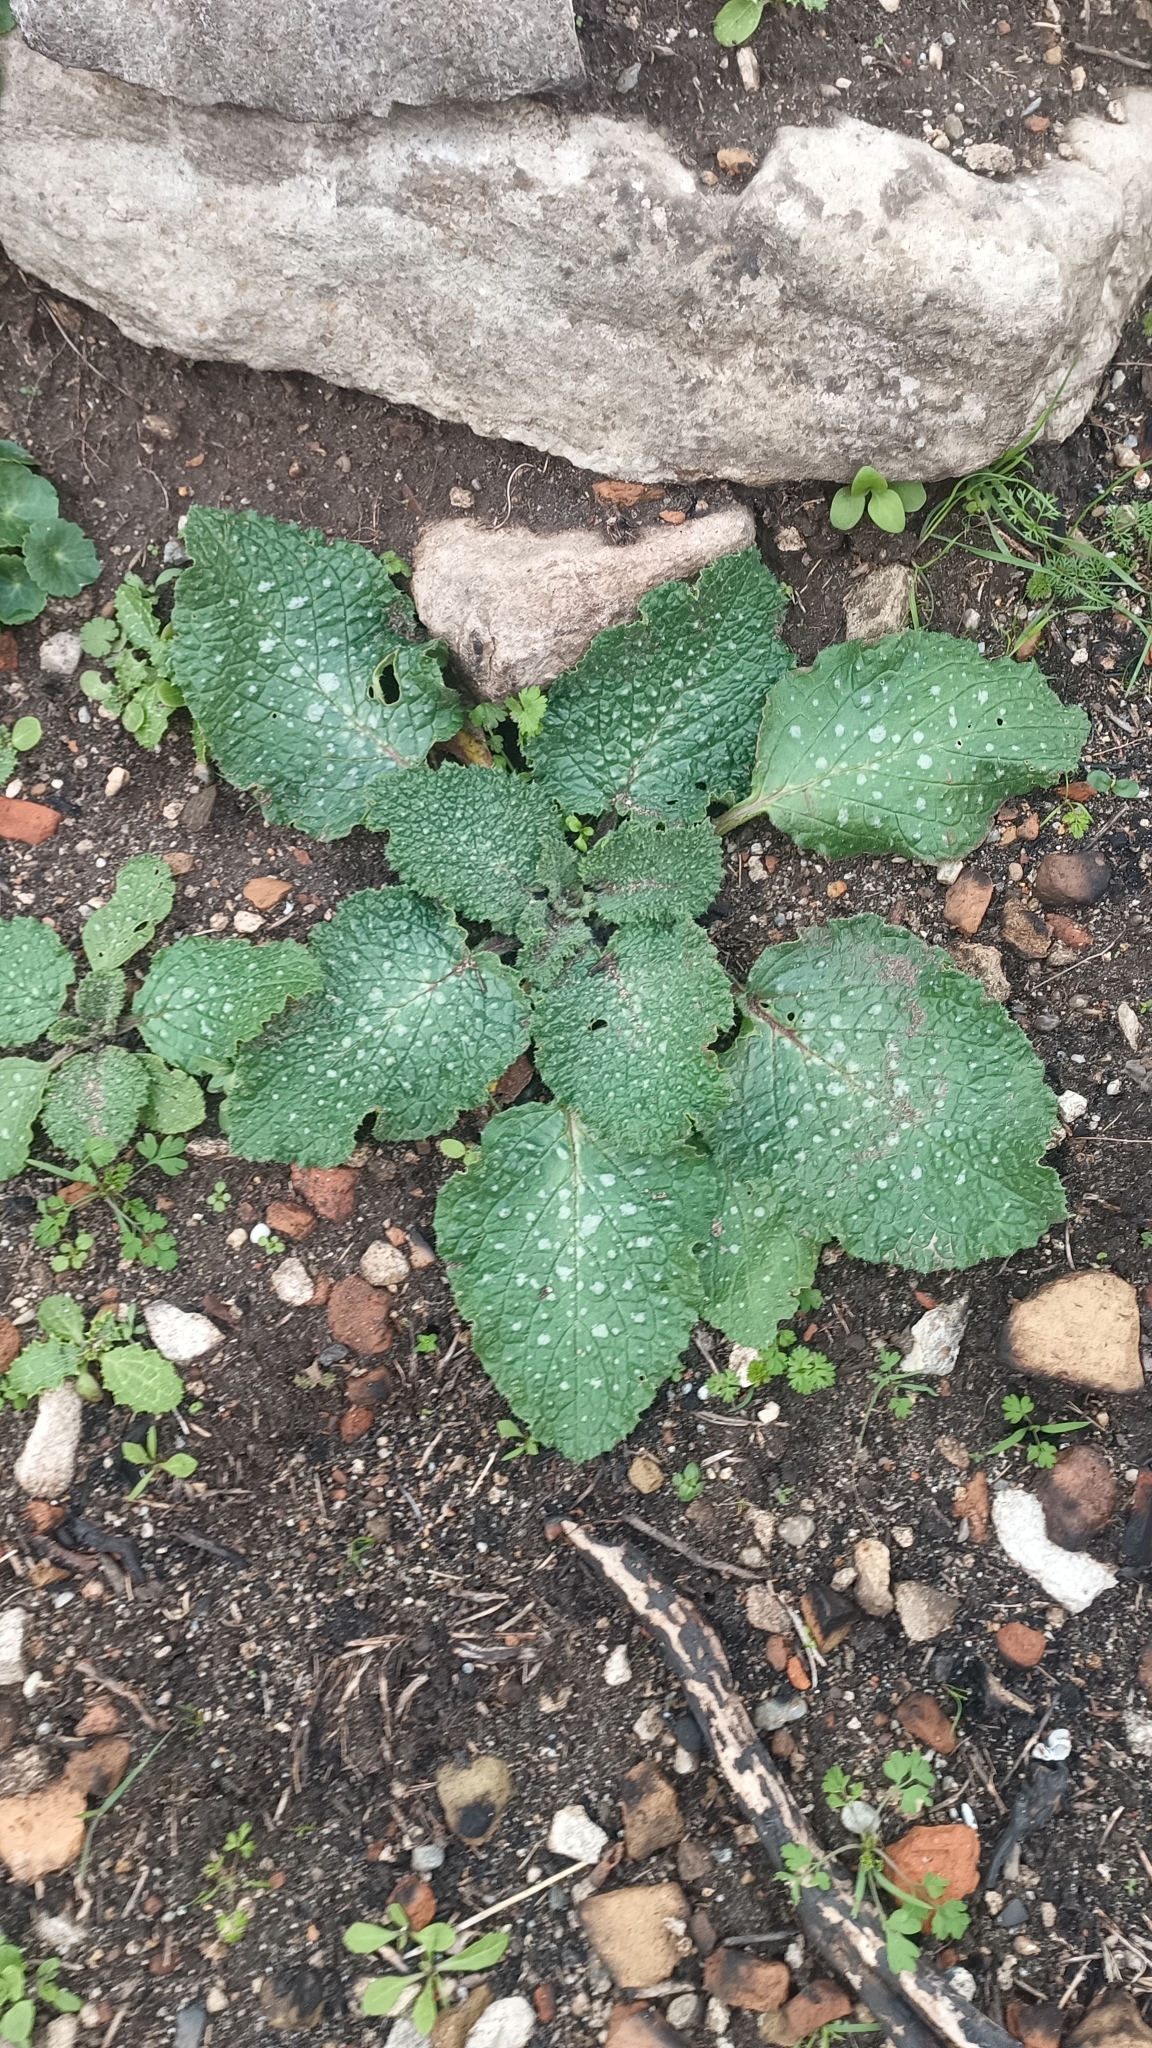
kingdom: Plantae
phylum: Tracheophyta
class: Magnoliopsida
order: Boraginales
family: Boraginaceae
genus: Borago
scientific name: Borago officinalis
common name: Borage
